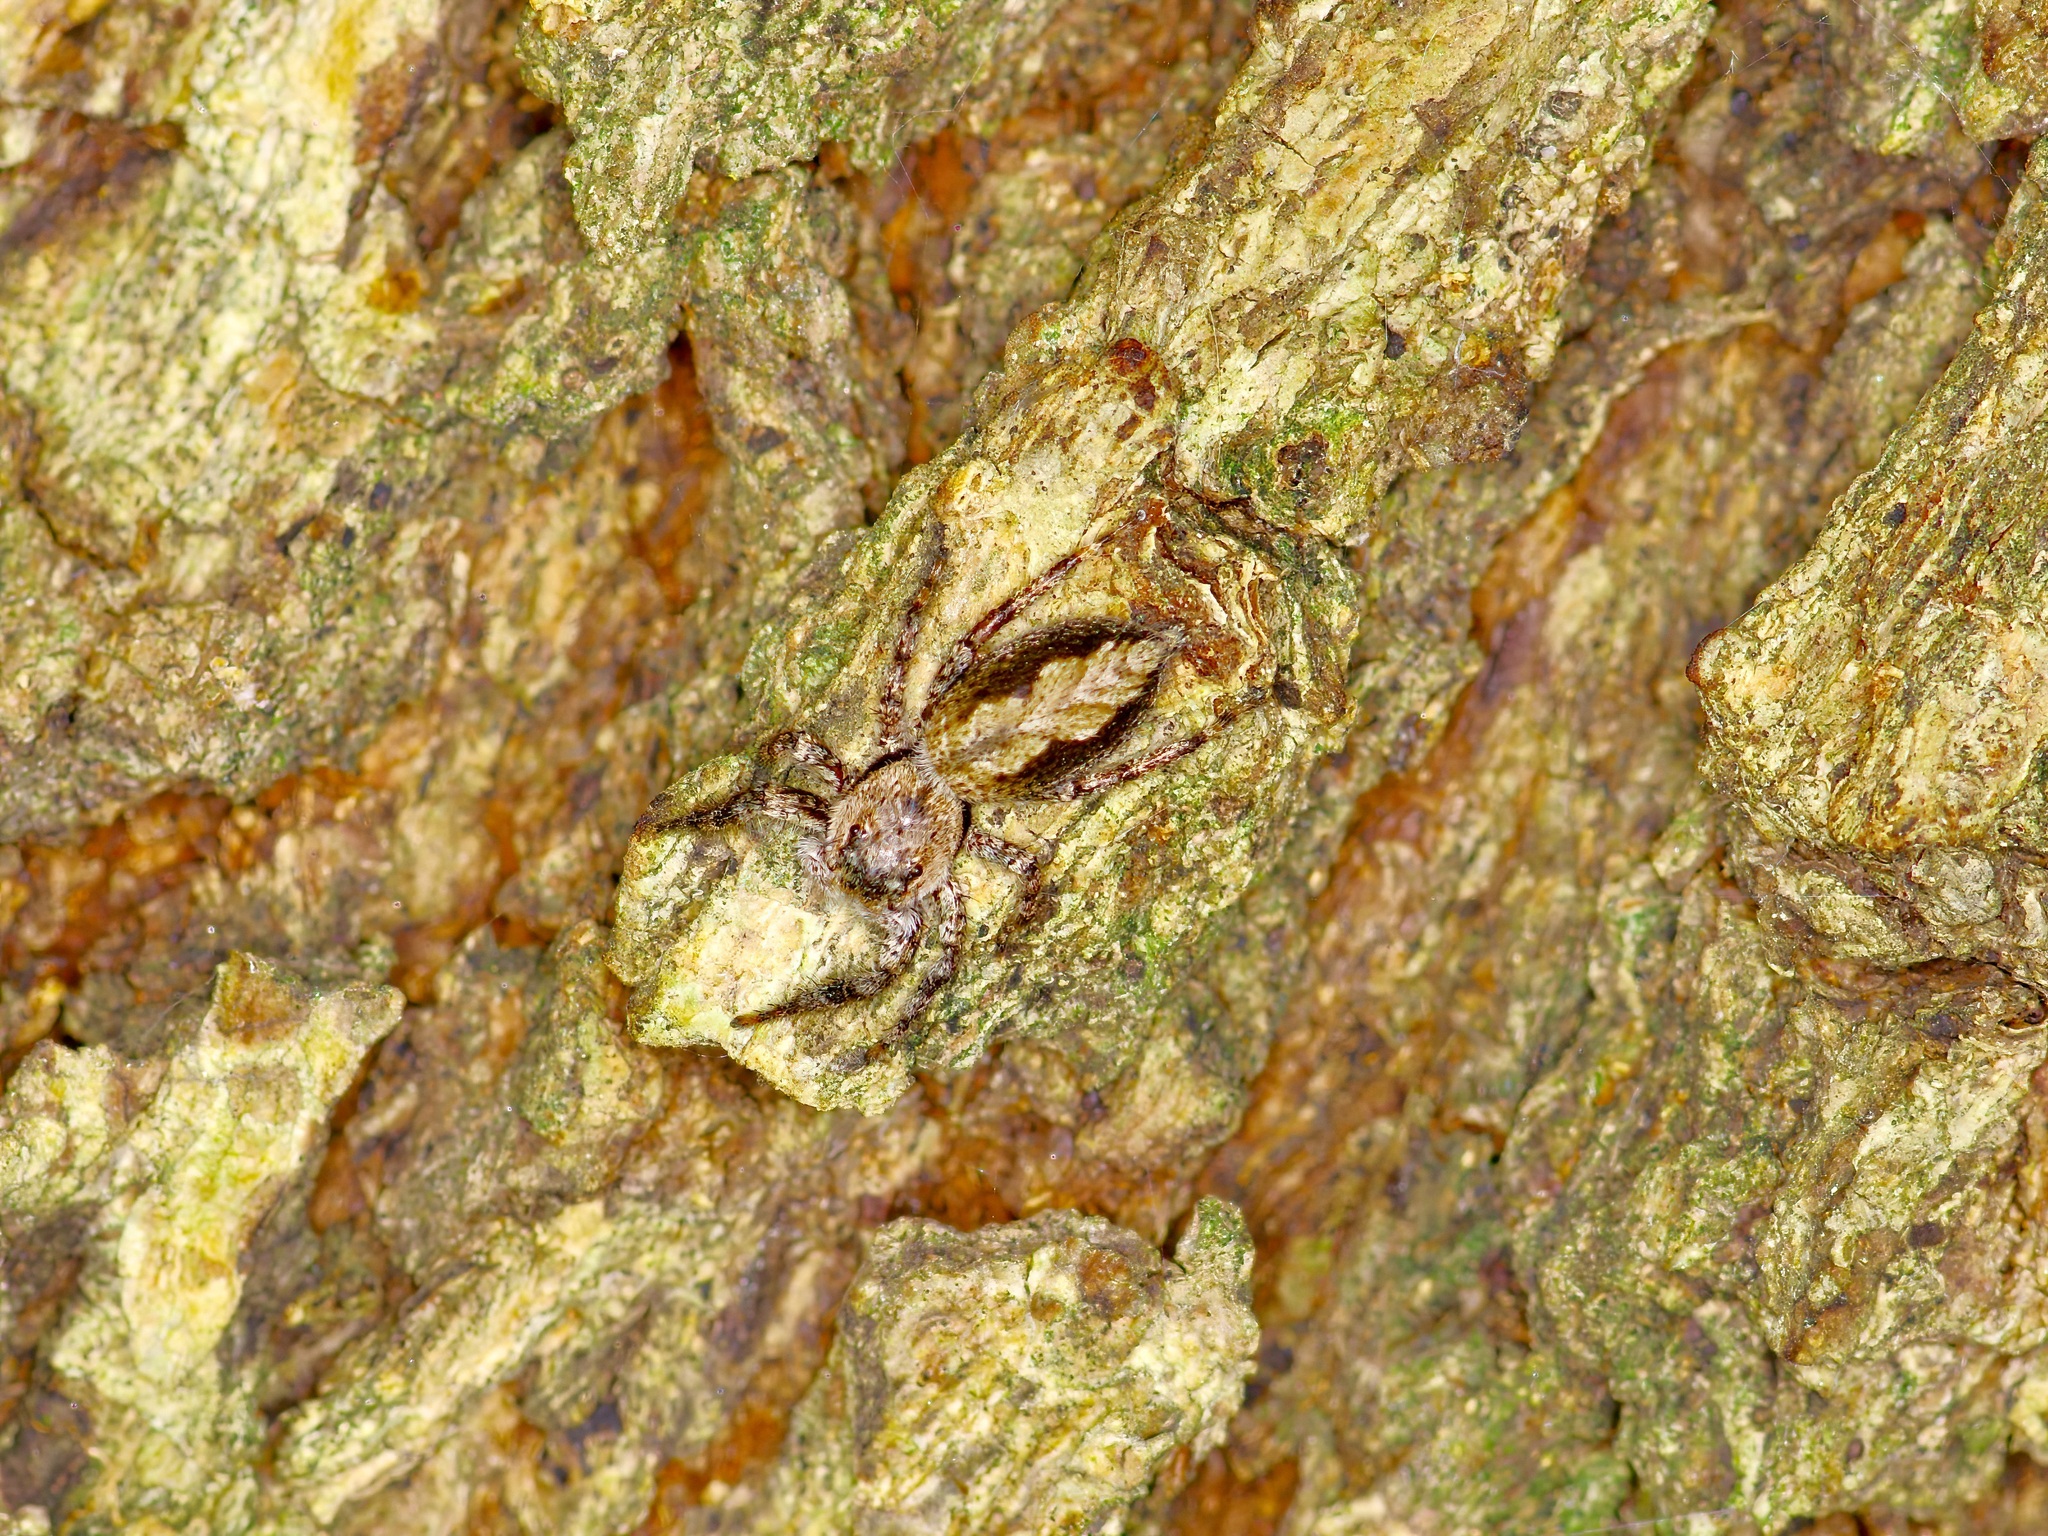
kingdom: Animalia
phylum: Arthropoda
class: Arachnida
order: Araneae
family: Salticidae
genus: Platycryptus
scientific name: Platycryptus undatus
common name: Tan jumping spider
